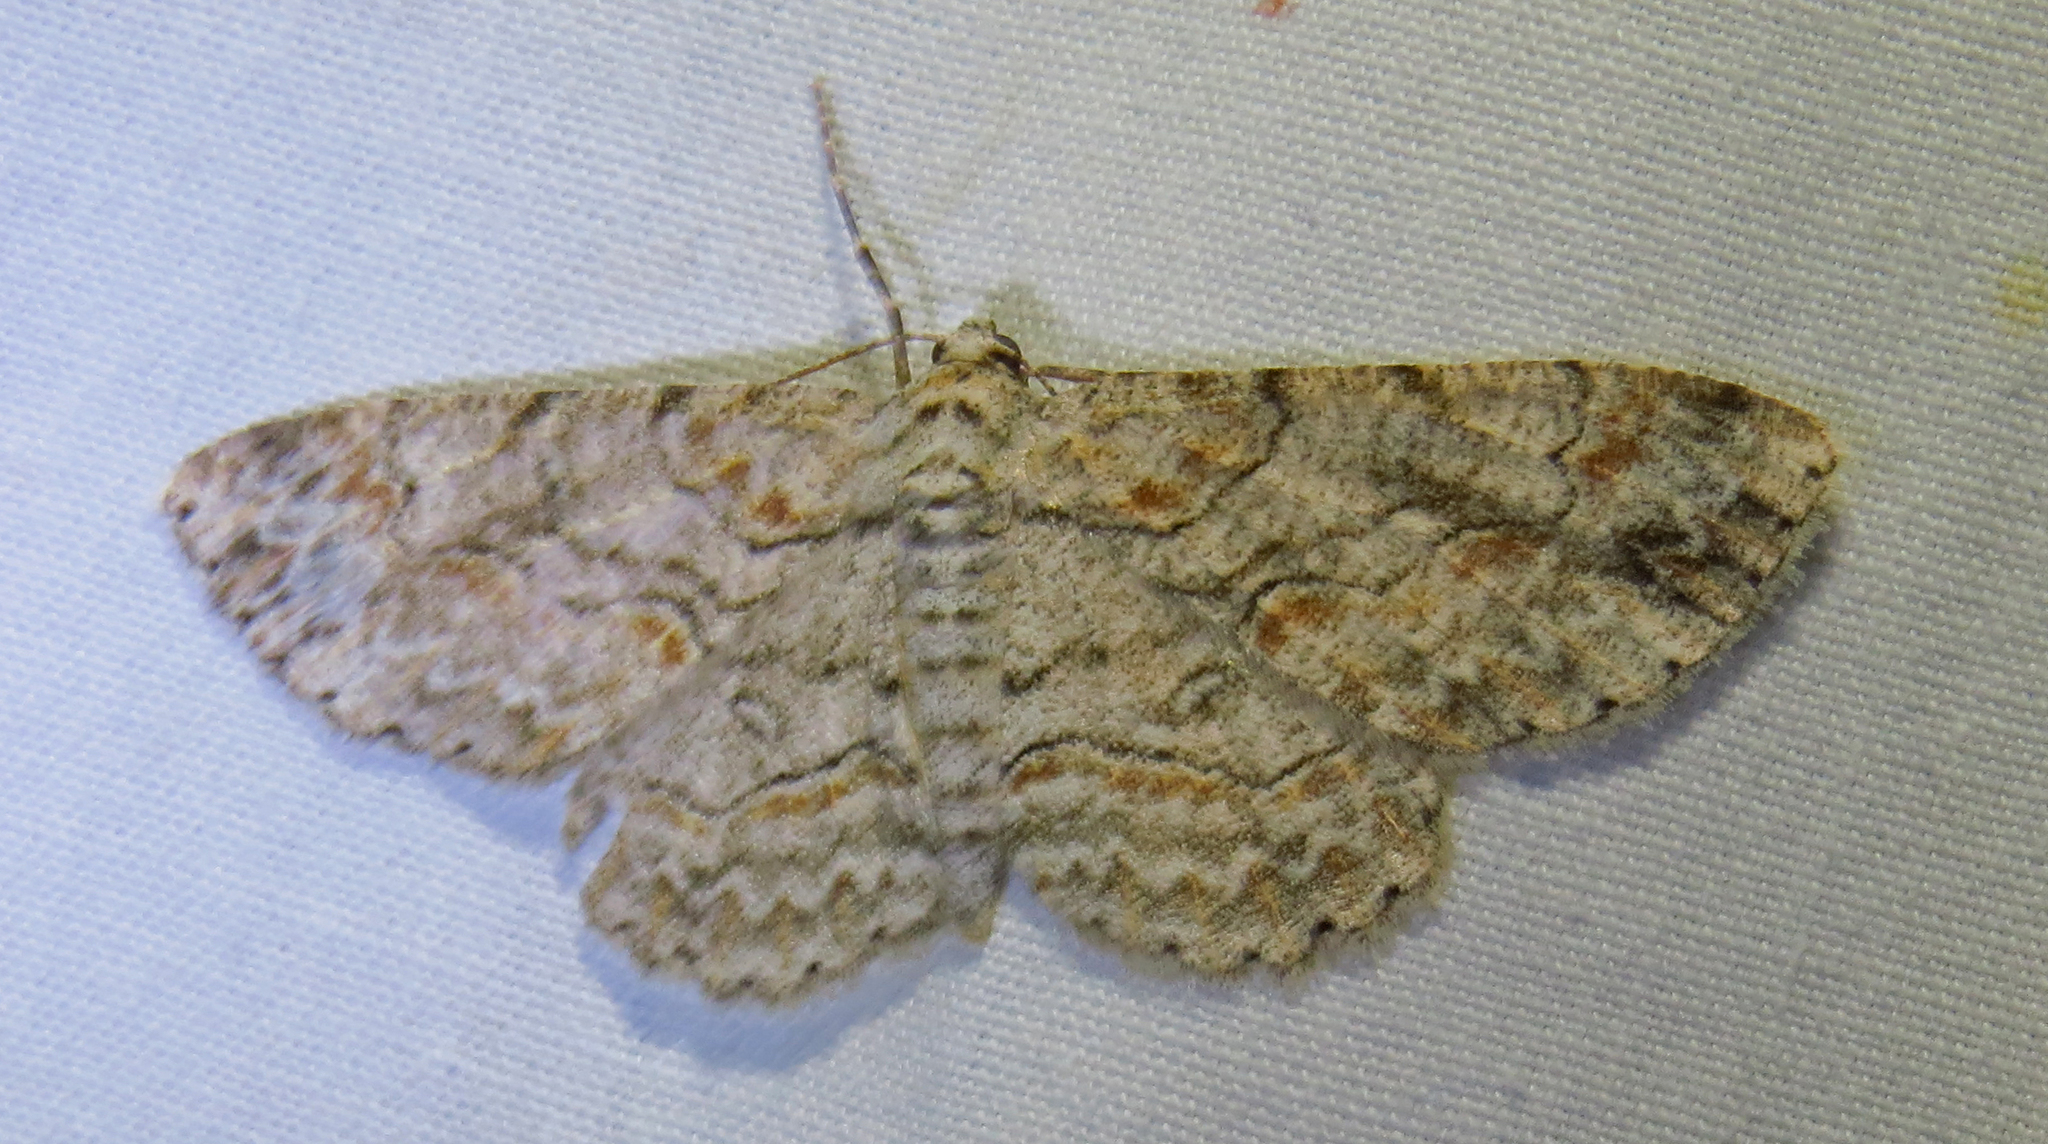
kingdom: Animalia
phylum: Arthropoda
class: Insecta
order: Lepidoptera
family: Geometridae
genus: Iridopsis
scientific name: Iridopsis defectaria
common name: Brown-shaded gray
